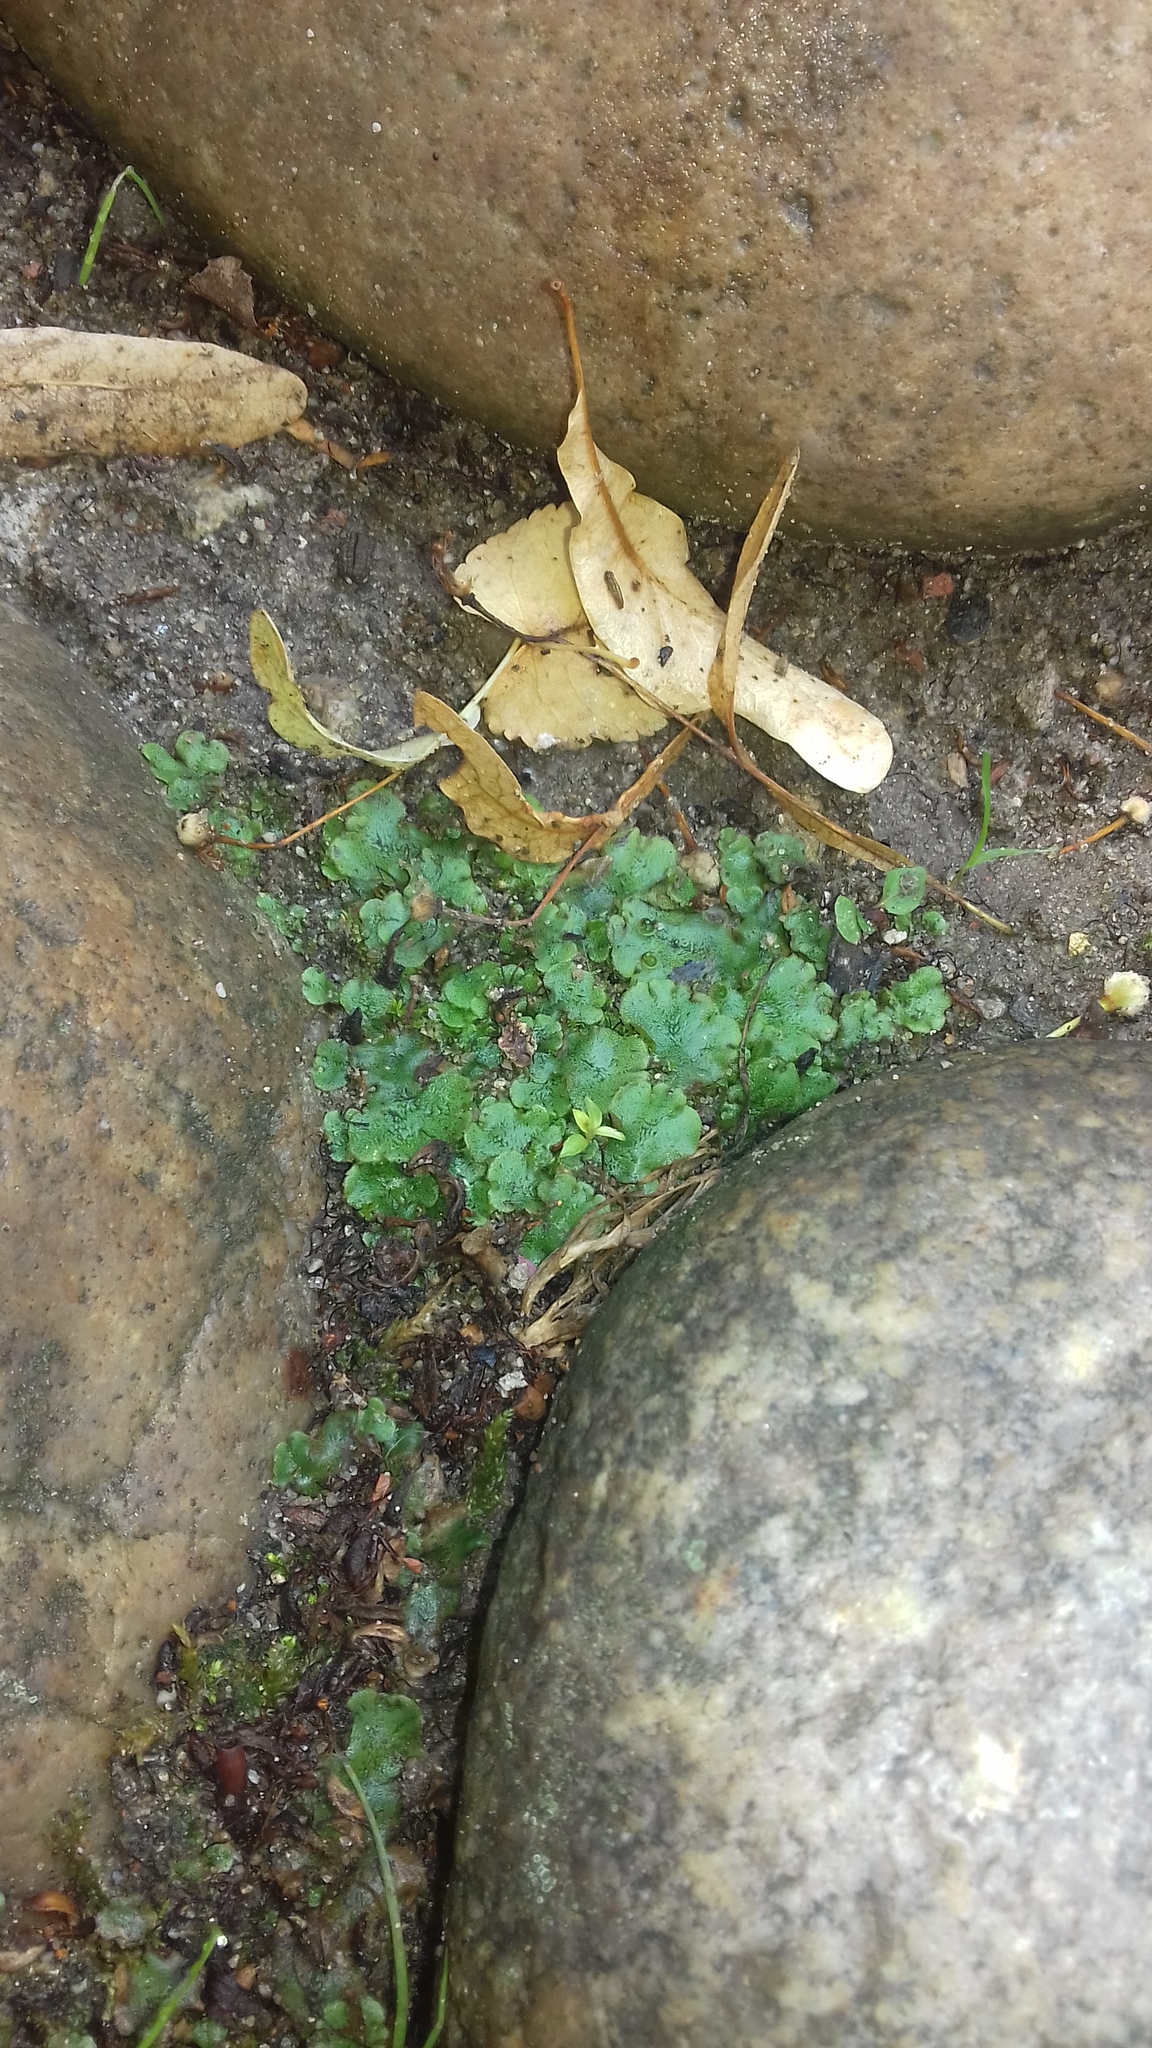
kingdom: Plantae
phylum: Marchantiophyta
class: Marchantiopsida
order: Marchantiales
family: Marchantiaceae
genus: Marchantia
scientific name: Marchantia polymorpha
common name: Common liverwort
